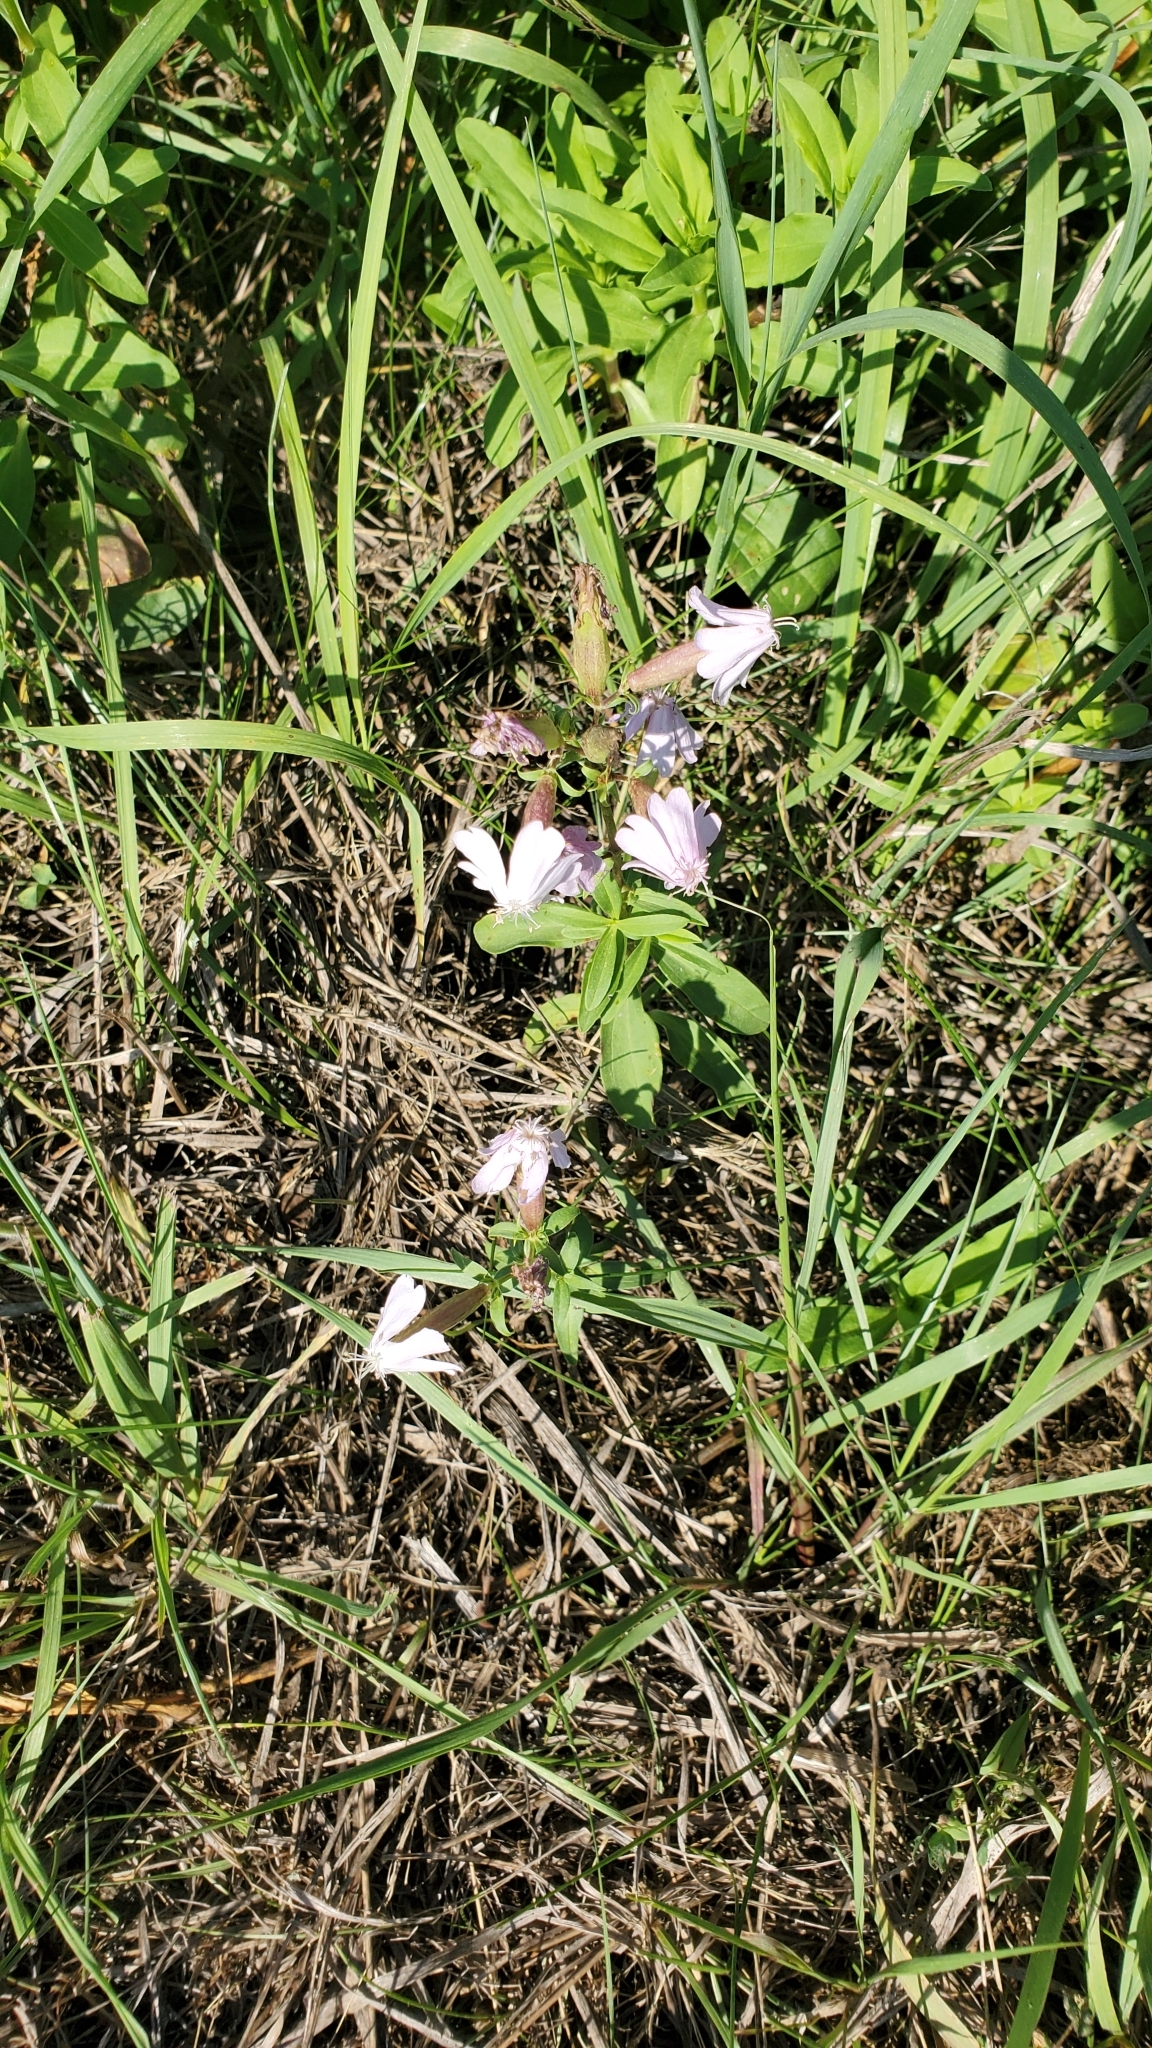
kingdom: Plantae
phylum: Tracheophyta
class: Magnoliopsida
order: Caryophyllales
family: Caryophyllaceae
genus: Saponaria
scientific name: Saponaria officinalis
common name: Soapwort
